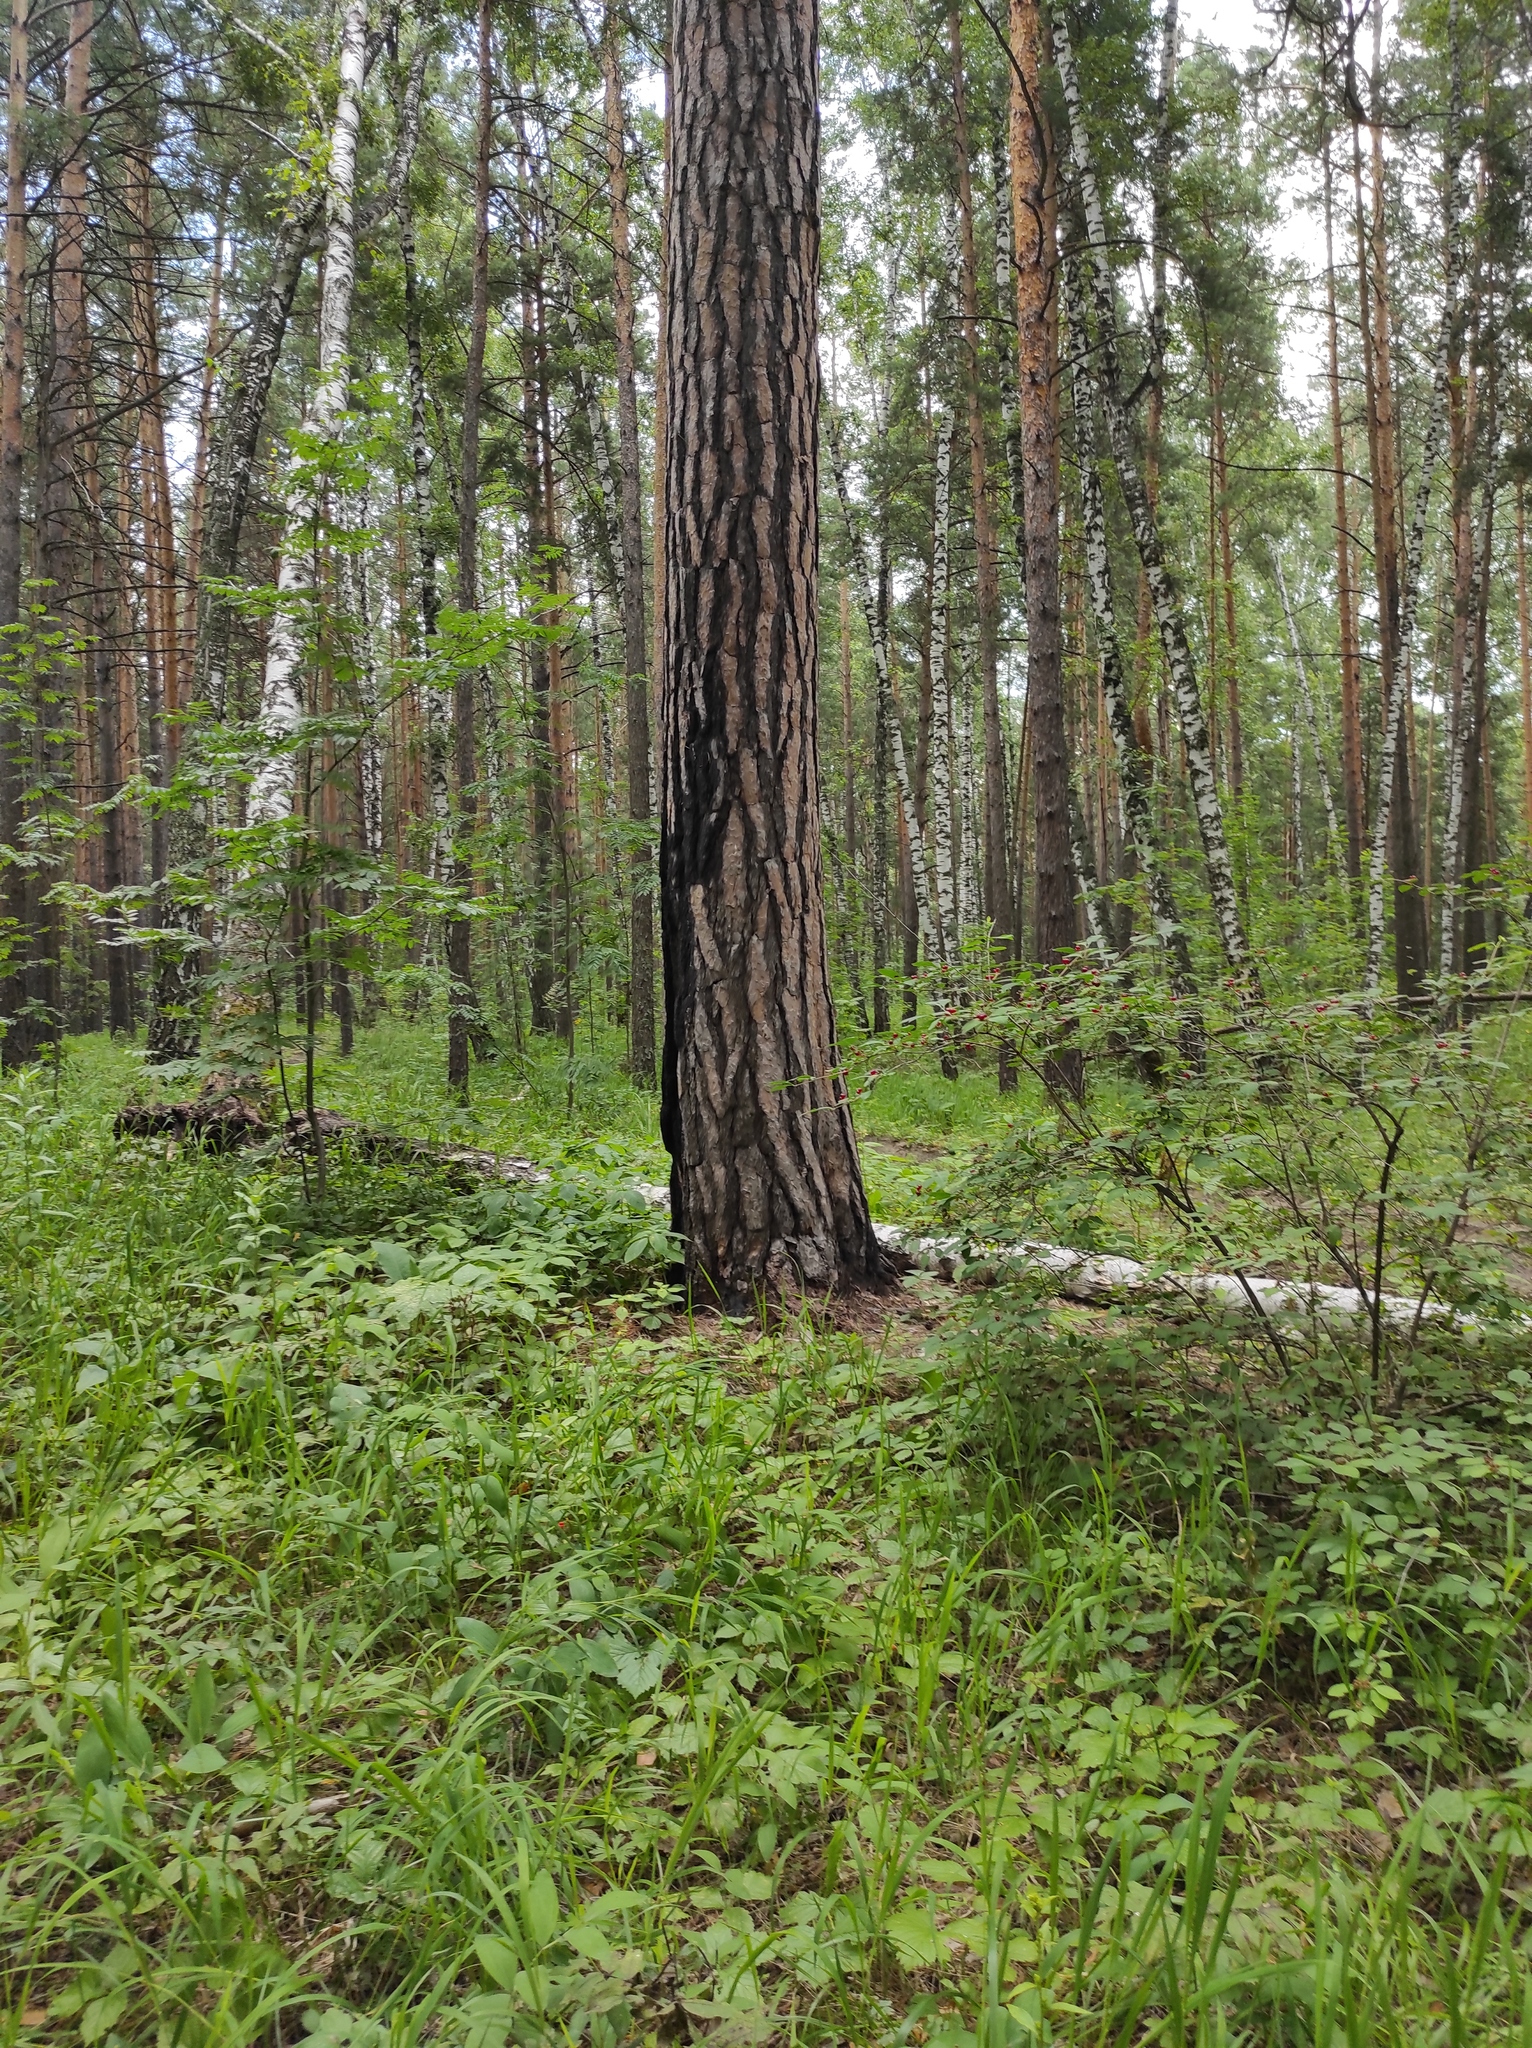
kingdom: Plantae
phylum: Tracheophyta
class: Pinopsida
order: Pinales
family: Pinaceae
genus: Pinus
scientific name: Pinus sylvestris
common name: Scots pine
